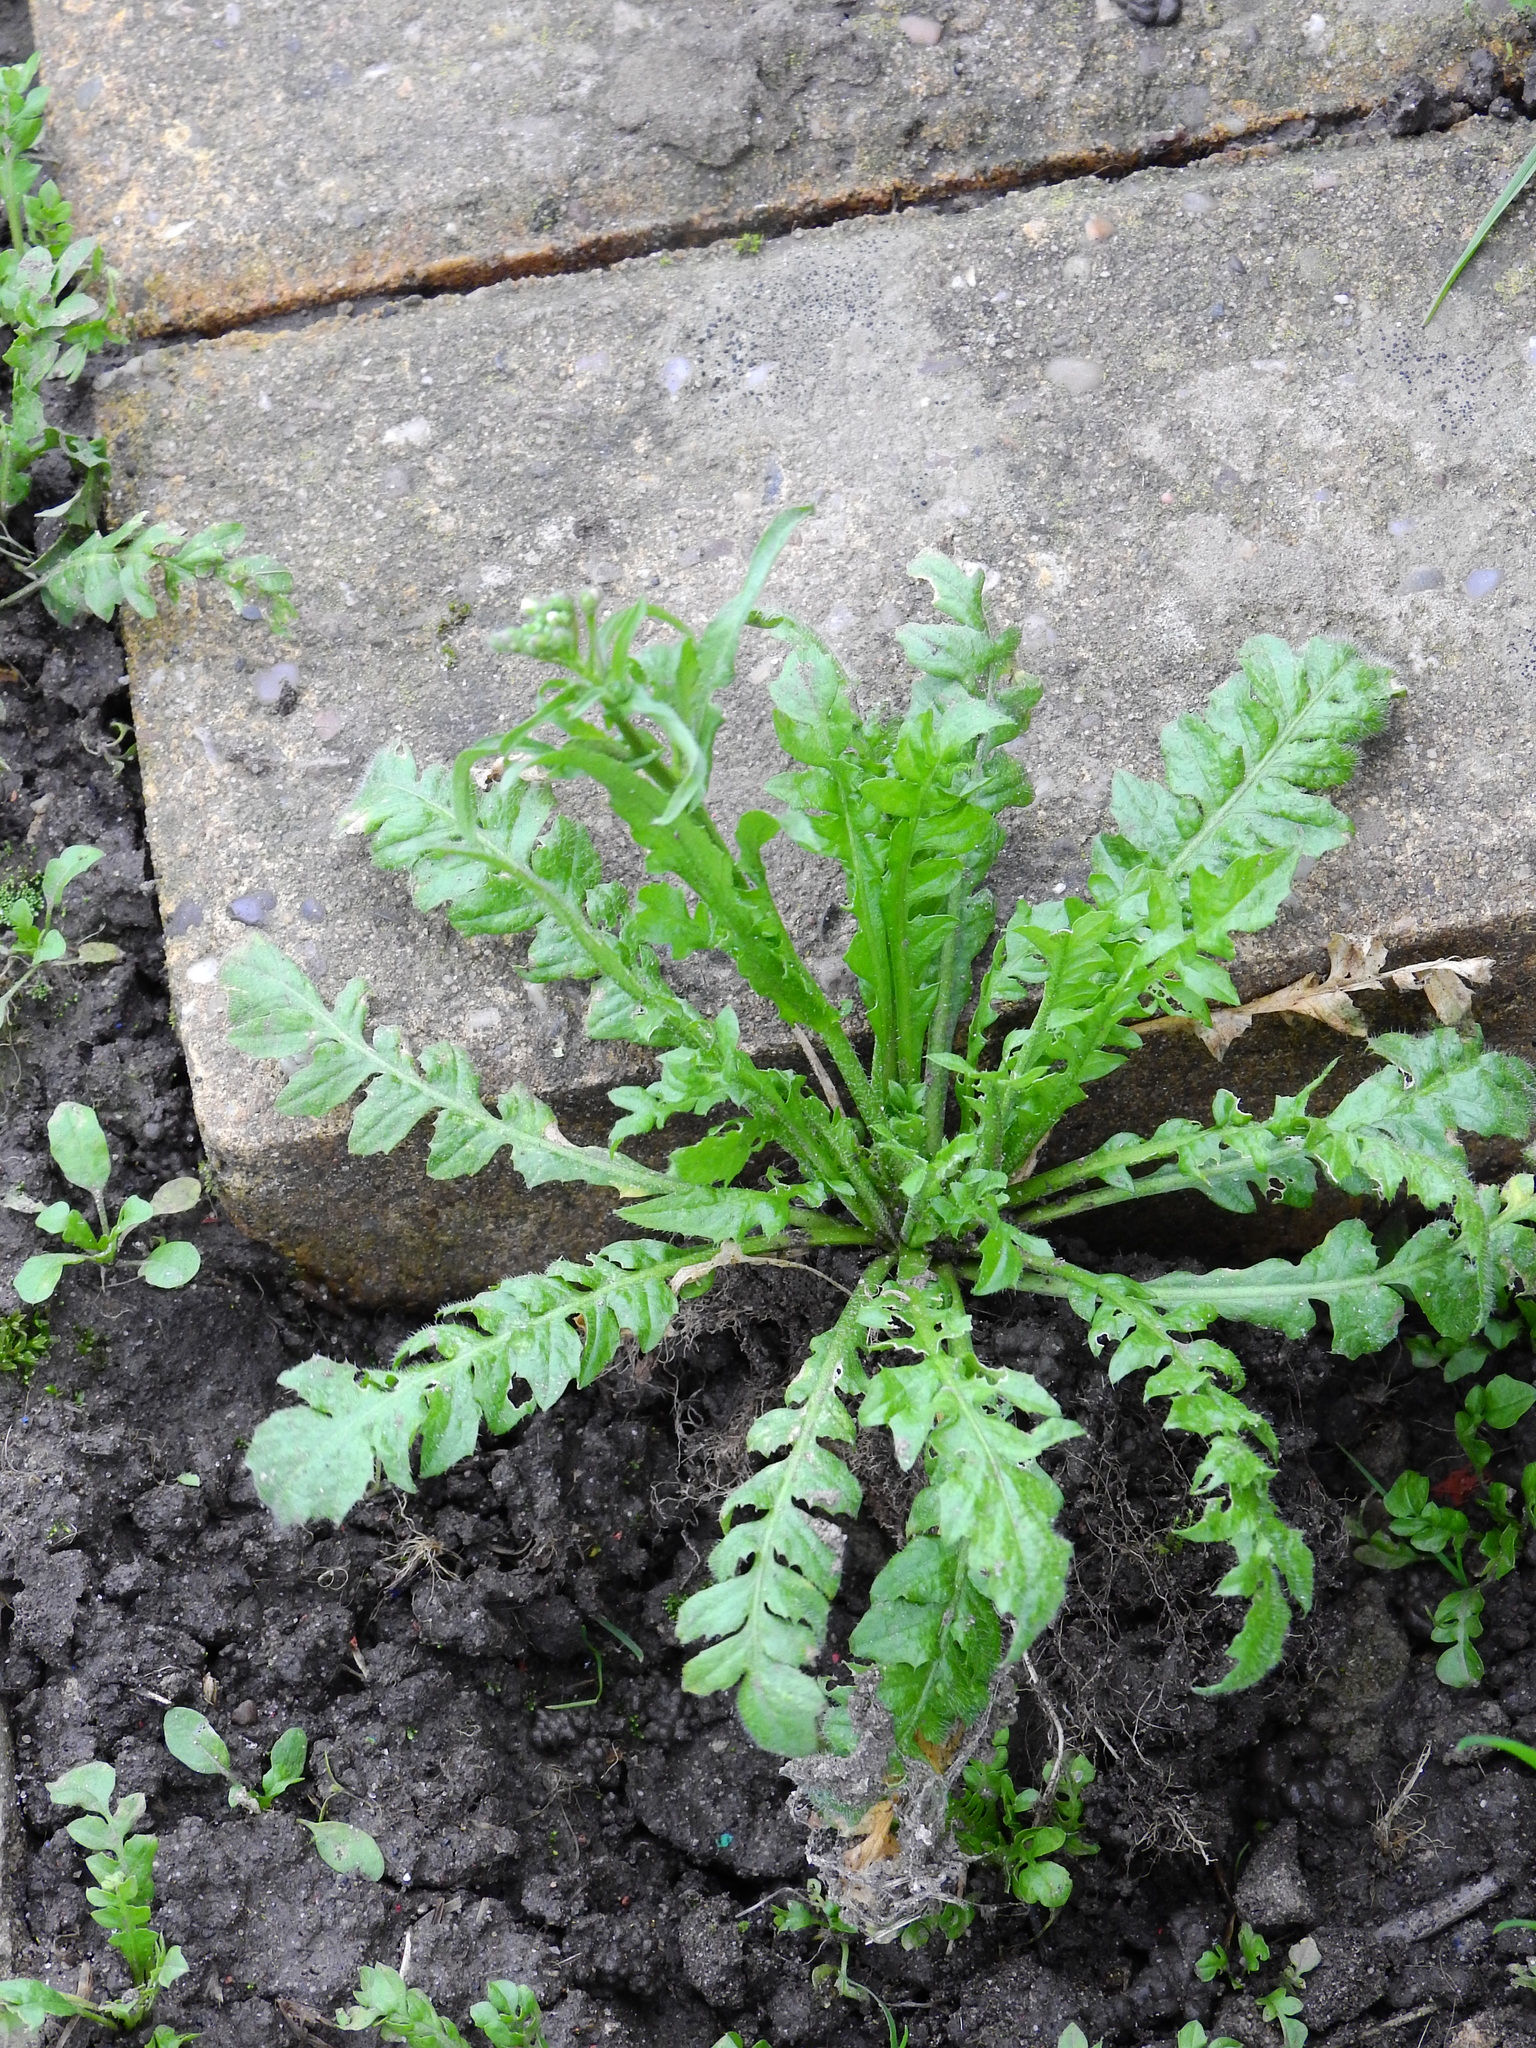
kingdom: Plantae
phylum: Tracheophyta
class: Magnoliopsida
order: Brassicales
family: Brassicaceae
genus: Capsella
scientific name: Capsella bursa-pastoris
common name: Shepherd's purse
